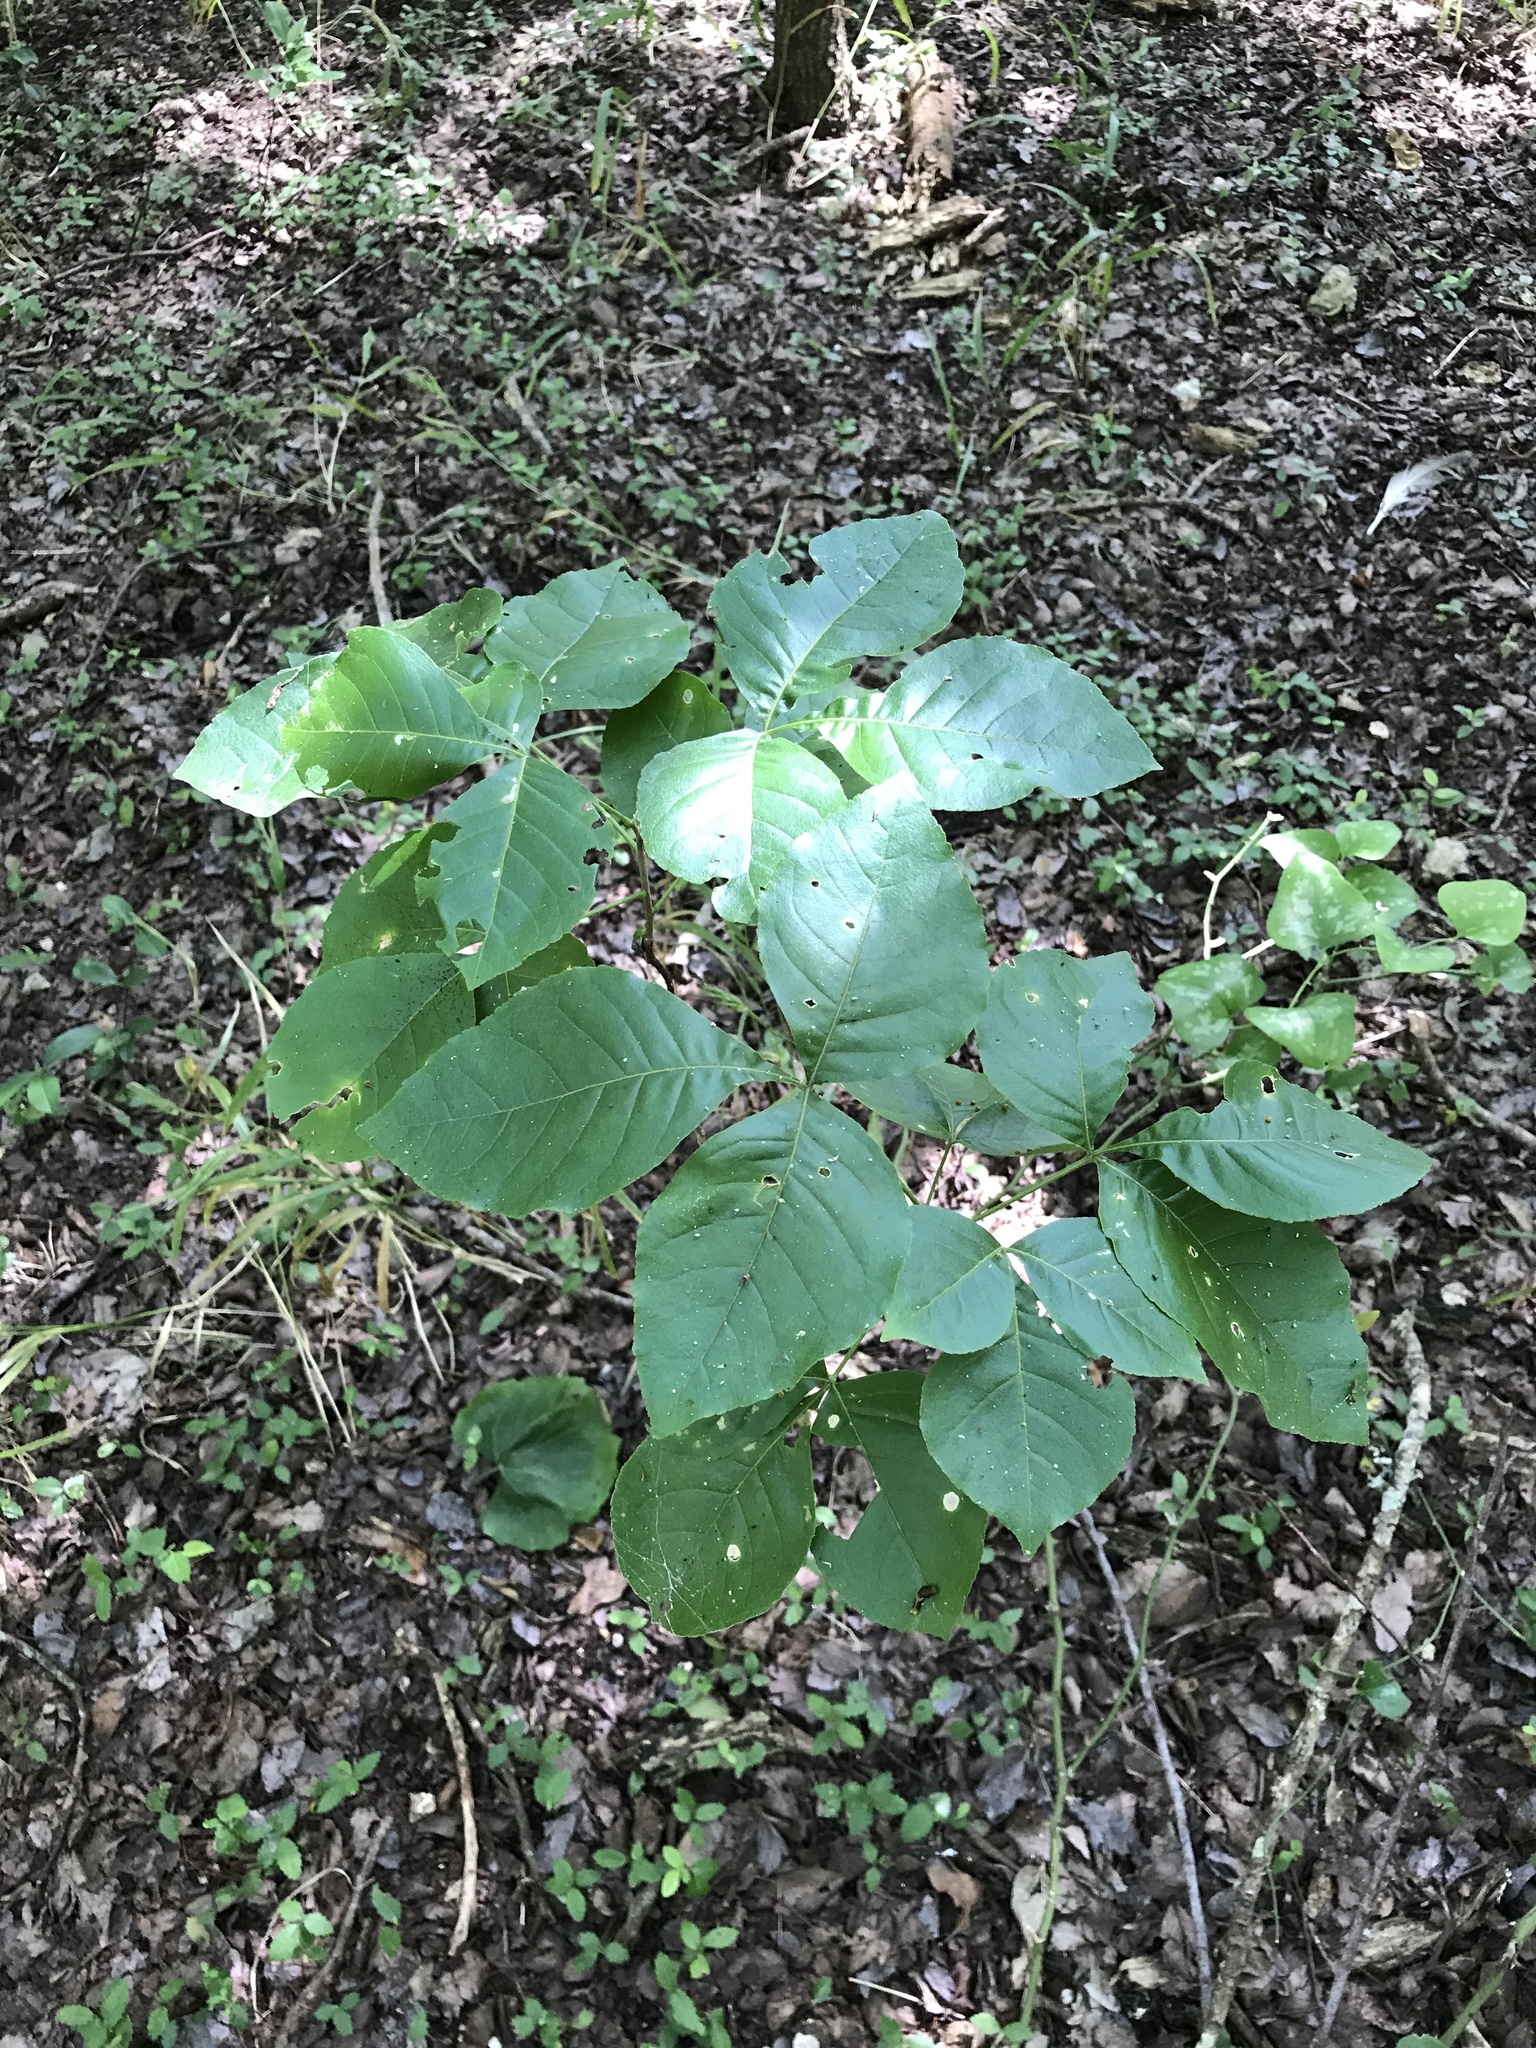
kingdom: Plantae
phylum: Tracheophyta
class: Magnoliopsida
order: Sapindales
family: Rutaceae
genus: Ptelea
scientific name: Ptelea trifoliata
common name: Common hop-tree
